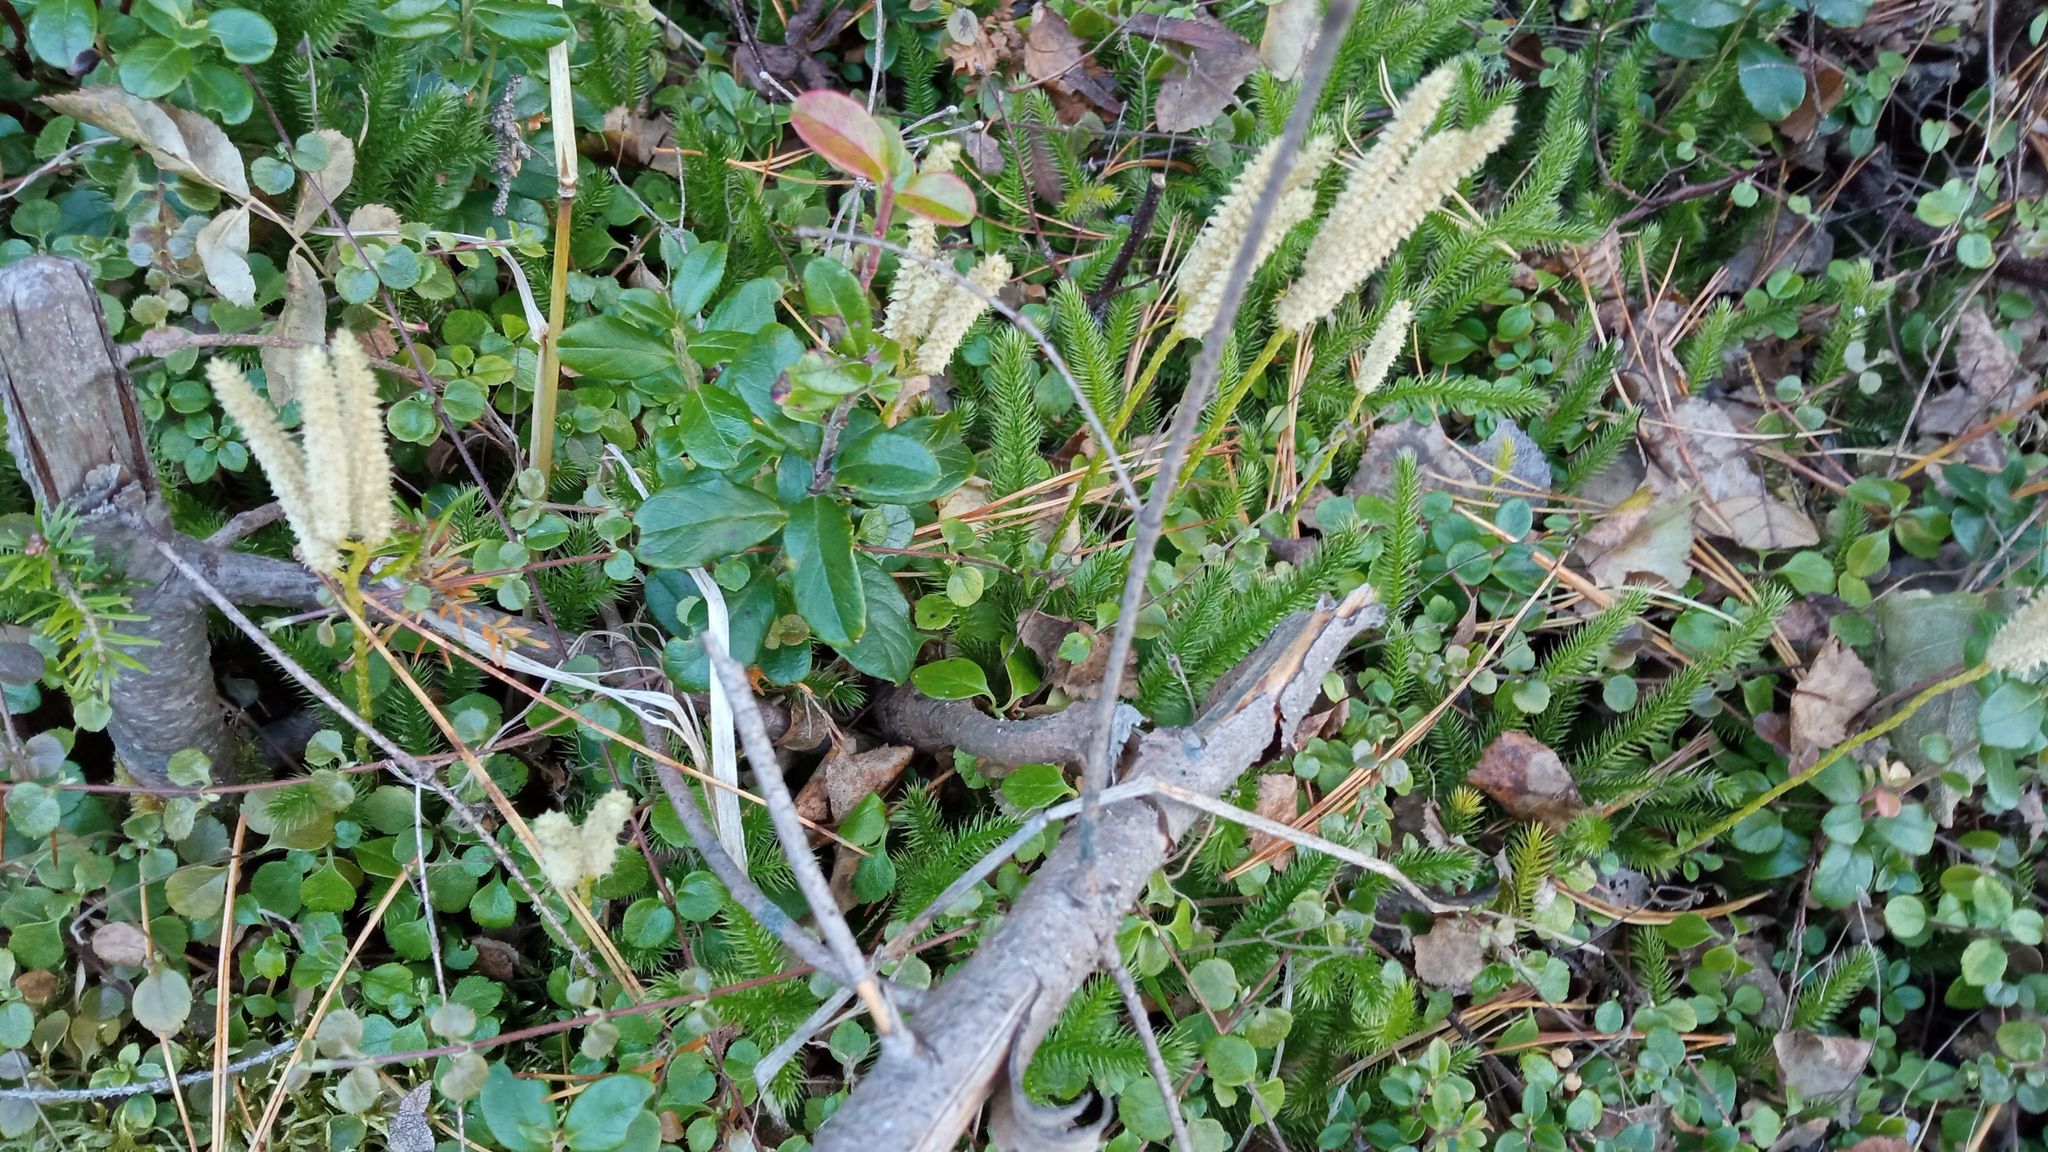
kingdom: Plantae
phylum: Tracheophyta
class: Lycopodiopsida
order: Lycopodiales
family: Lycopodiaceae
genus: Lycopodium
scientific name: Lycopodium clavatum
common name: Stag's-horn clubmoss
